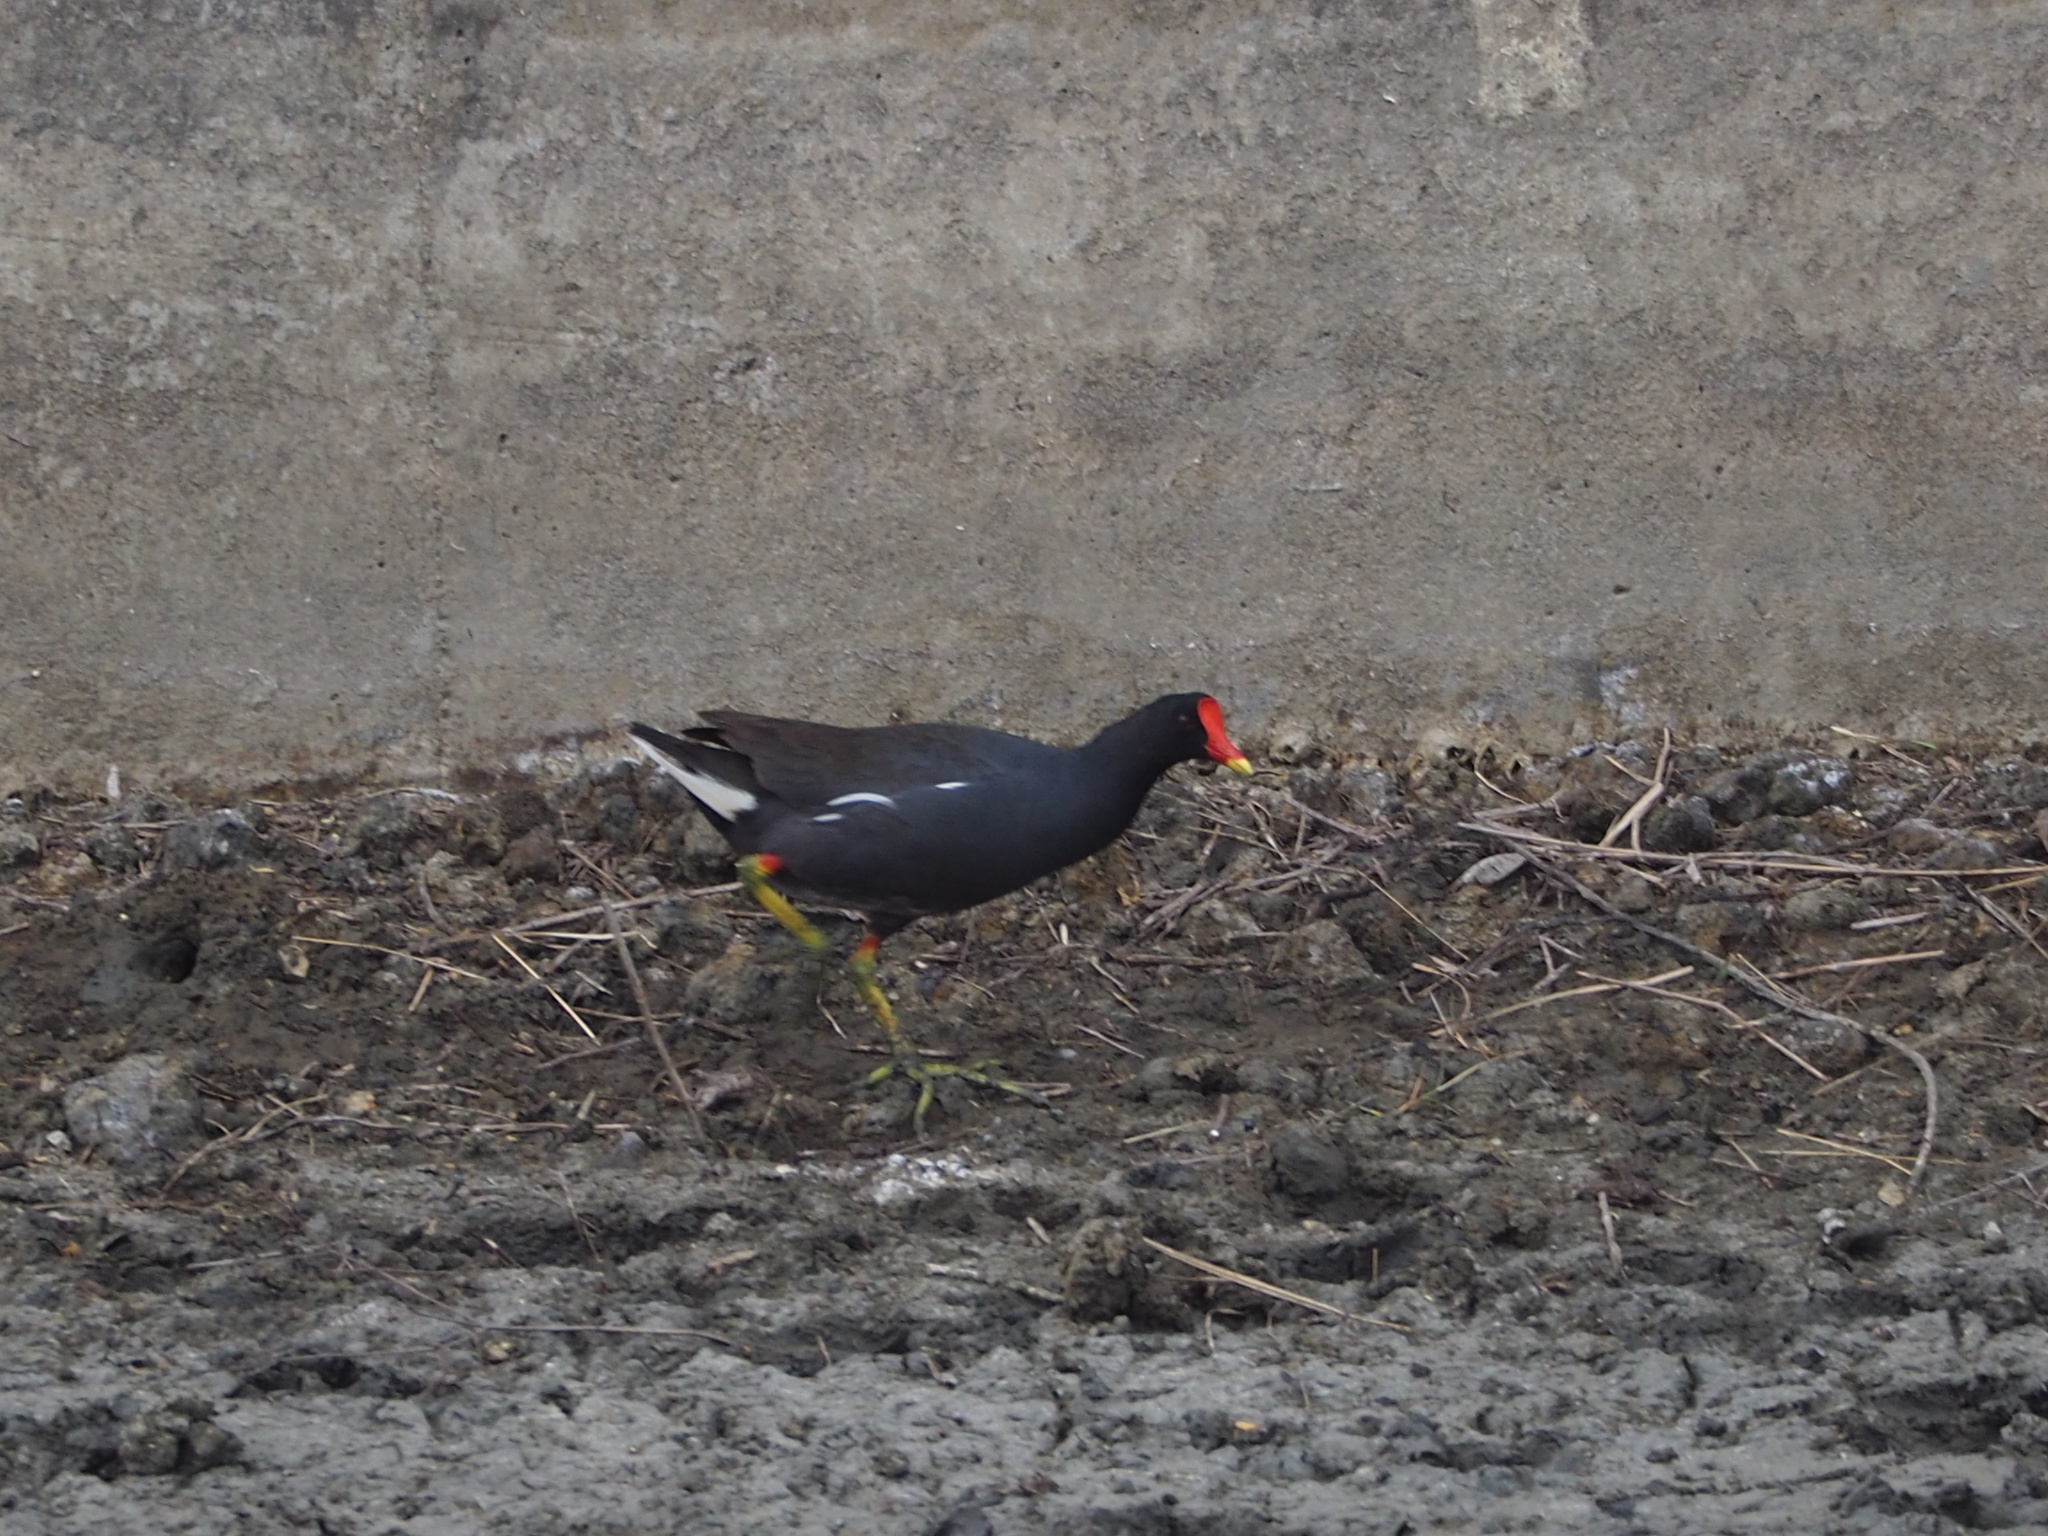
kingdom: Animalia
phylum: Chordata
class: Aves
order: Gruiformes
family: Rallidae
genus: Gallinula
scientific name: Gallinula chloropus
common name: Common moorhen
